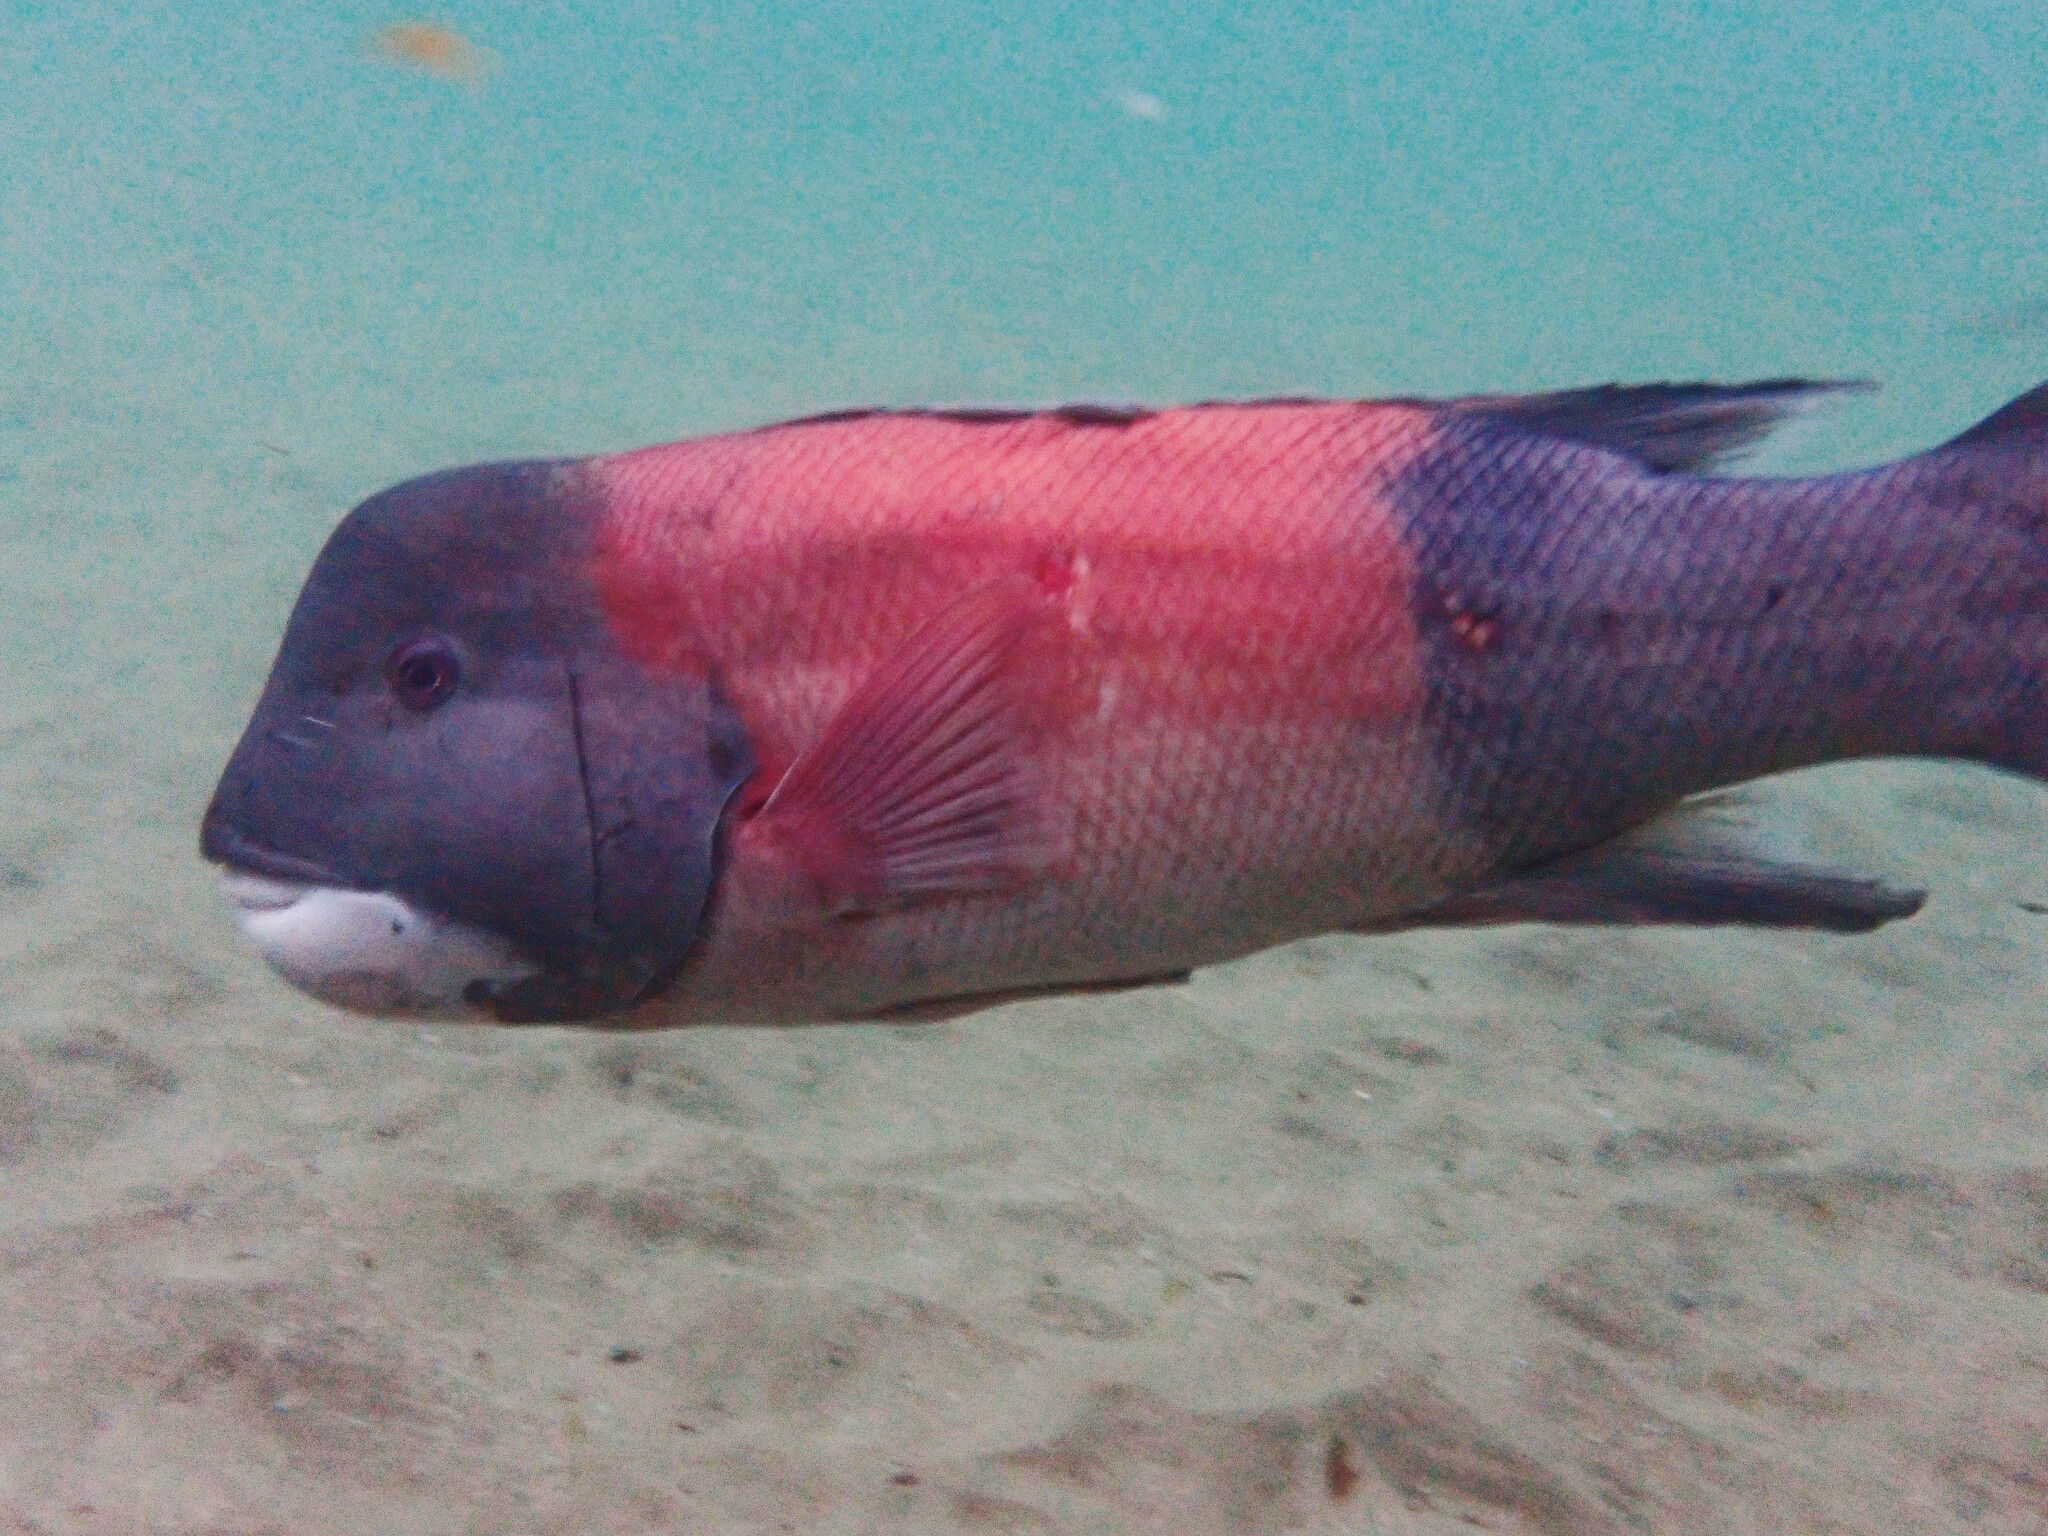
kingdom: Animalia
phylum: Chordata
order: Perciformes
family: Labridae
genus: Semicossyphus
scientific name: Semicossyphus pulcher
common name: California sheephead
